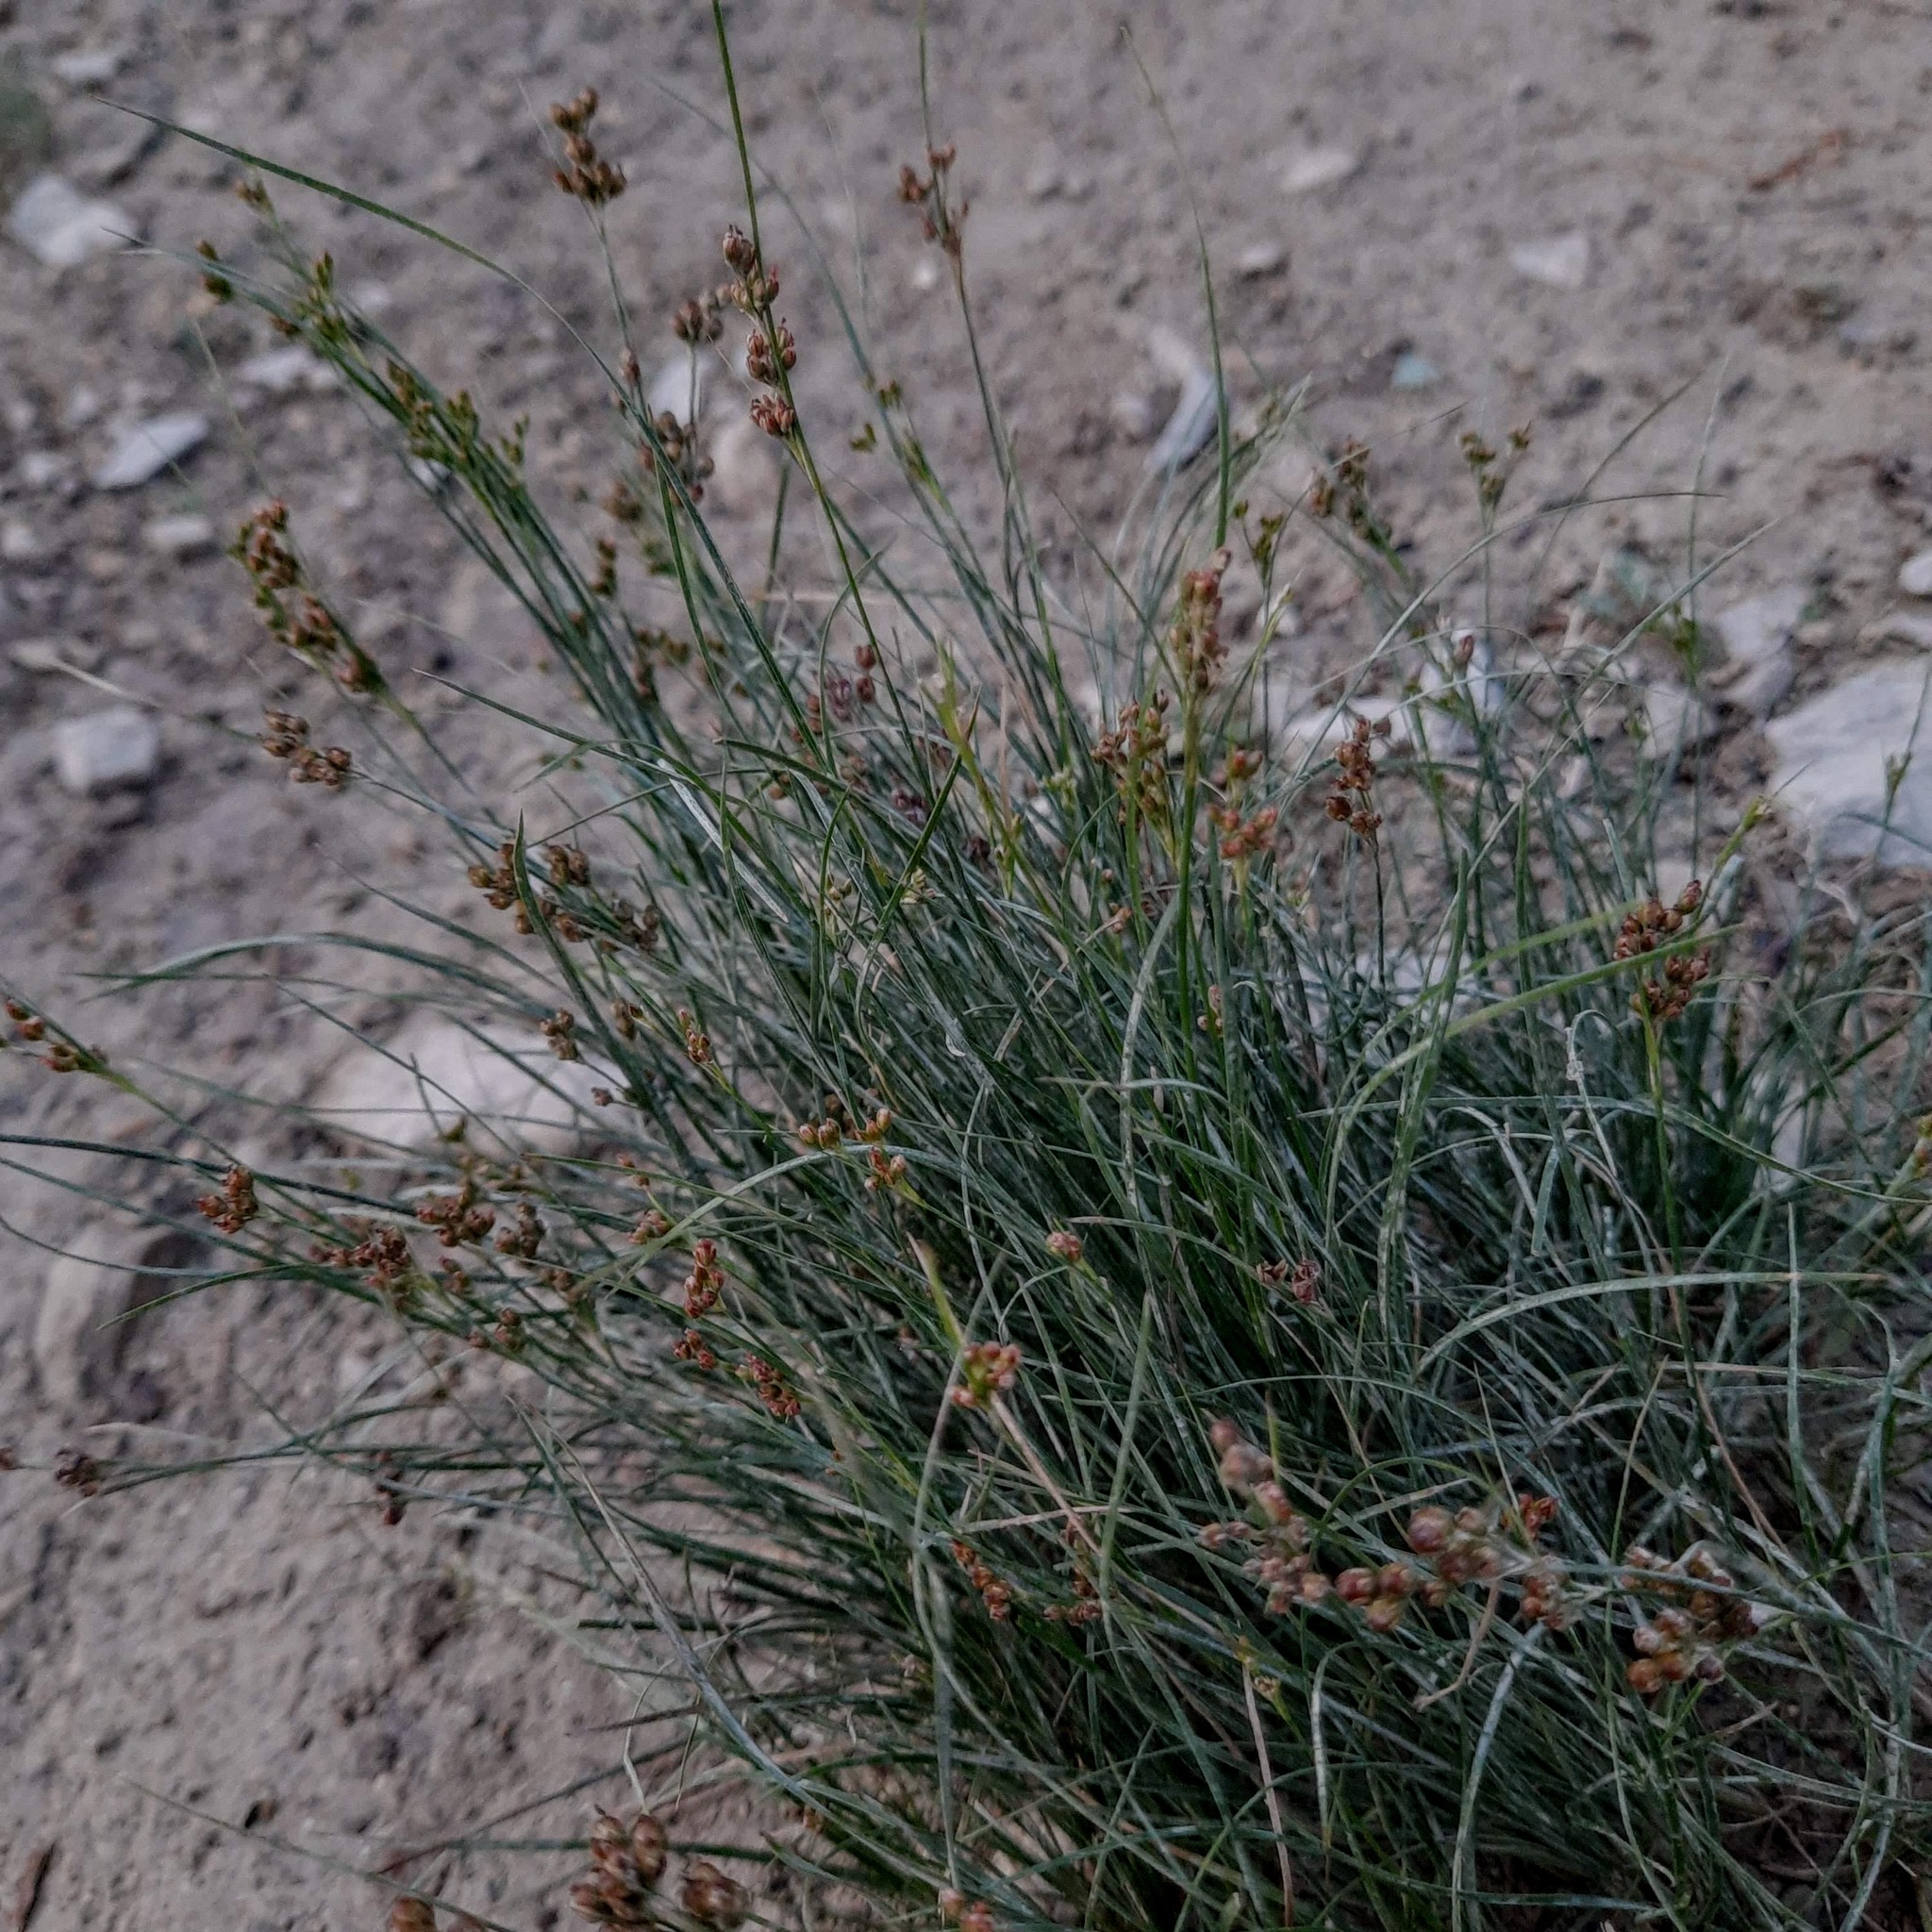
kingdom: Plantae
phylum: Tracheophyta
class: Liliopsida
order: Poales
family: Juncaceae
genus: Juncus
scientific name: Juncus compressus
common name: Round-fruited rush
